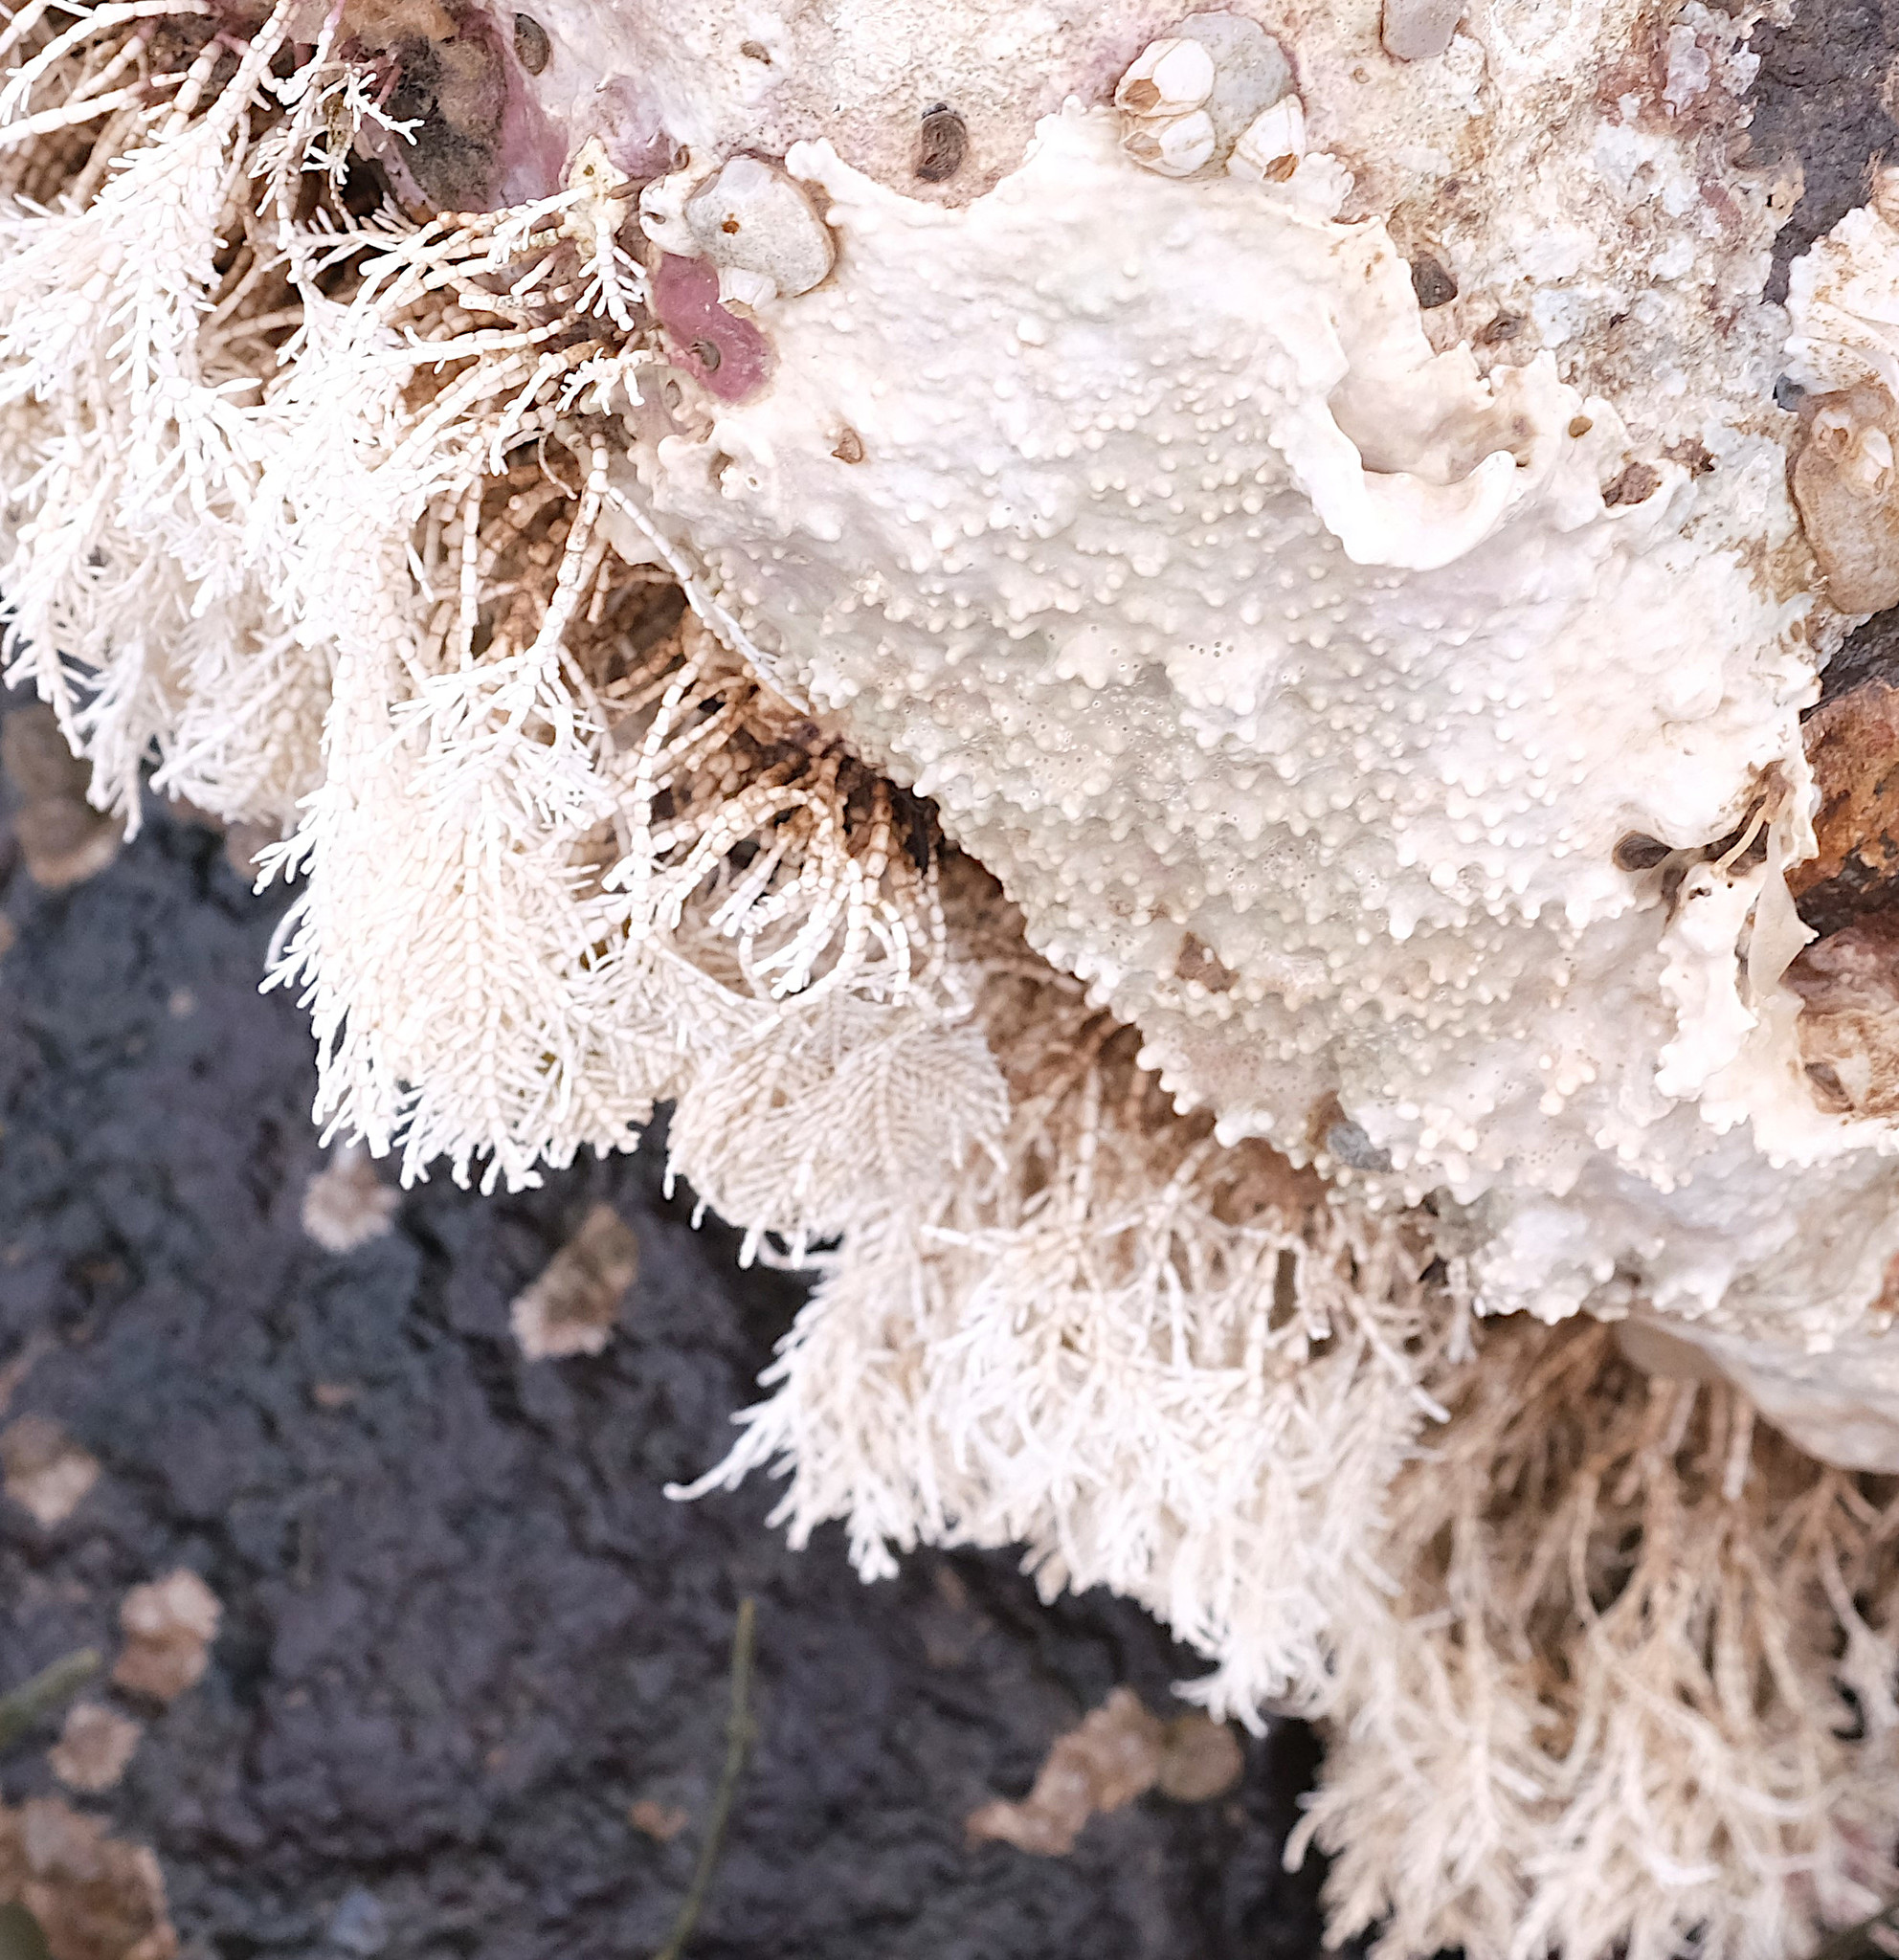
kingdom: Plantae
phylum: Rhodophyta
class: Florideophyceae
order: Corallinales
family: Corallinaceae
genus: Corallina
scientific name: Corallina officinalis
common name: Coral weed
